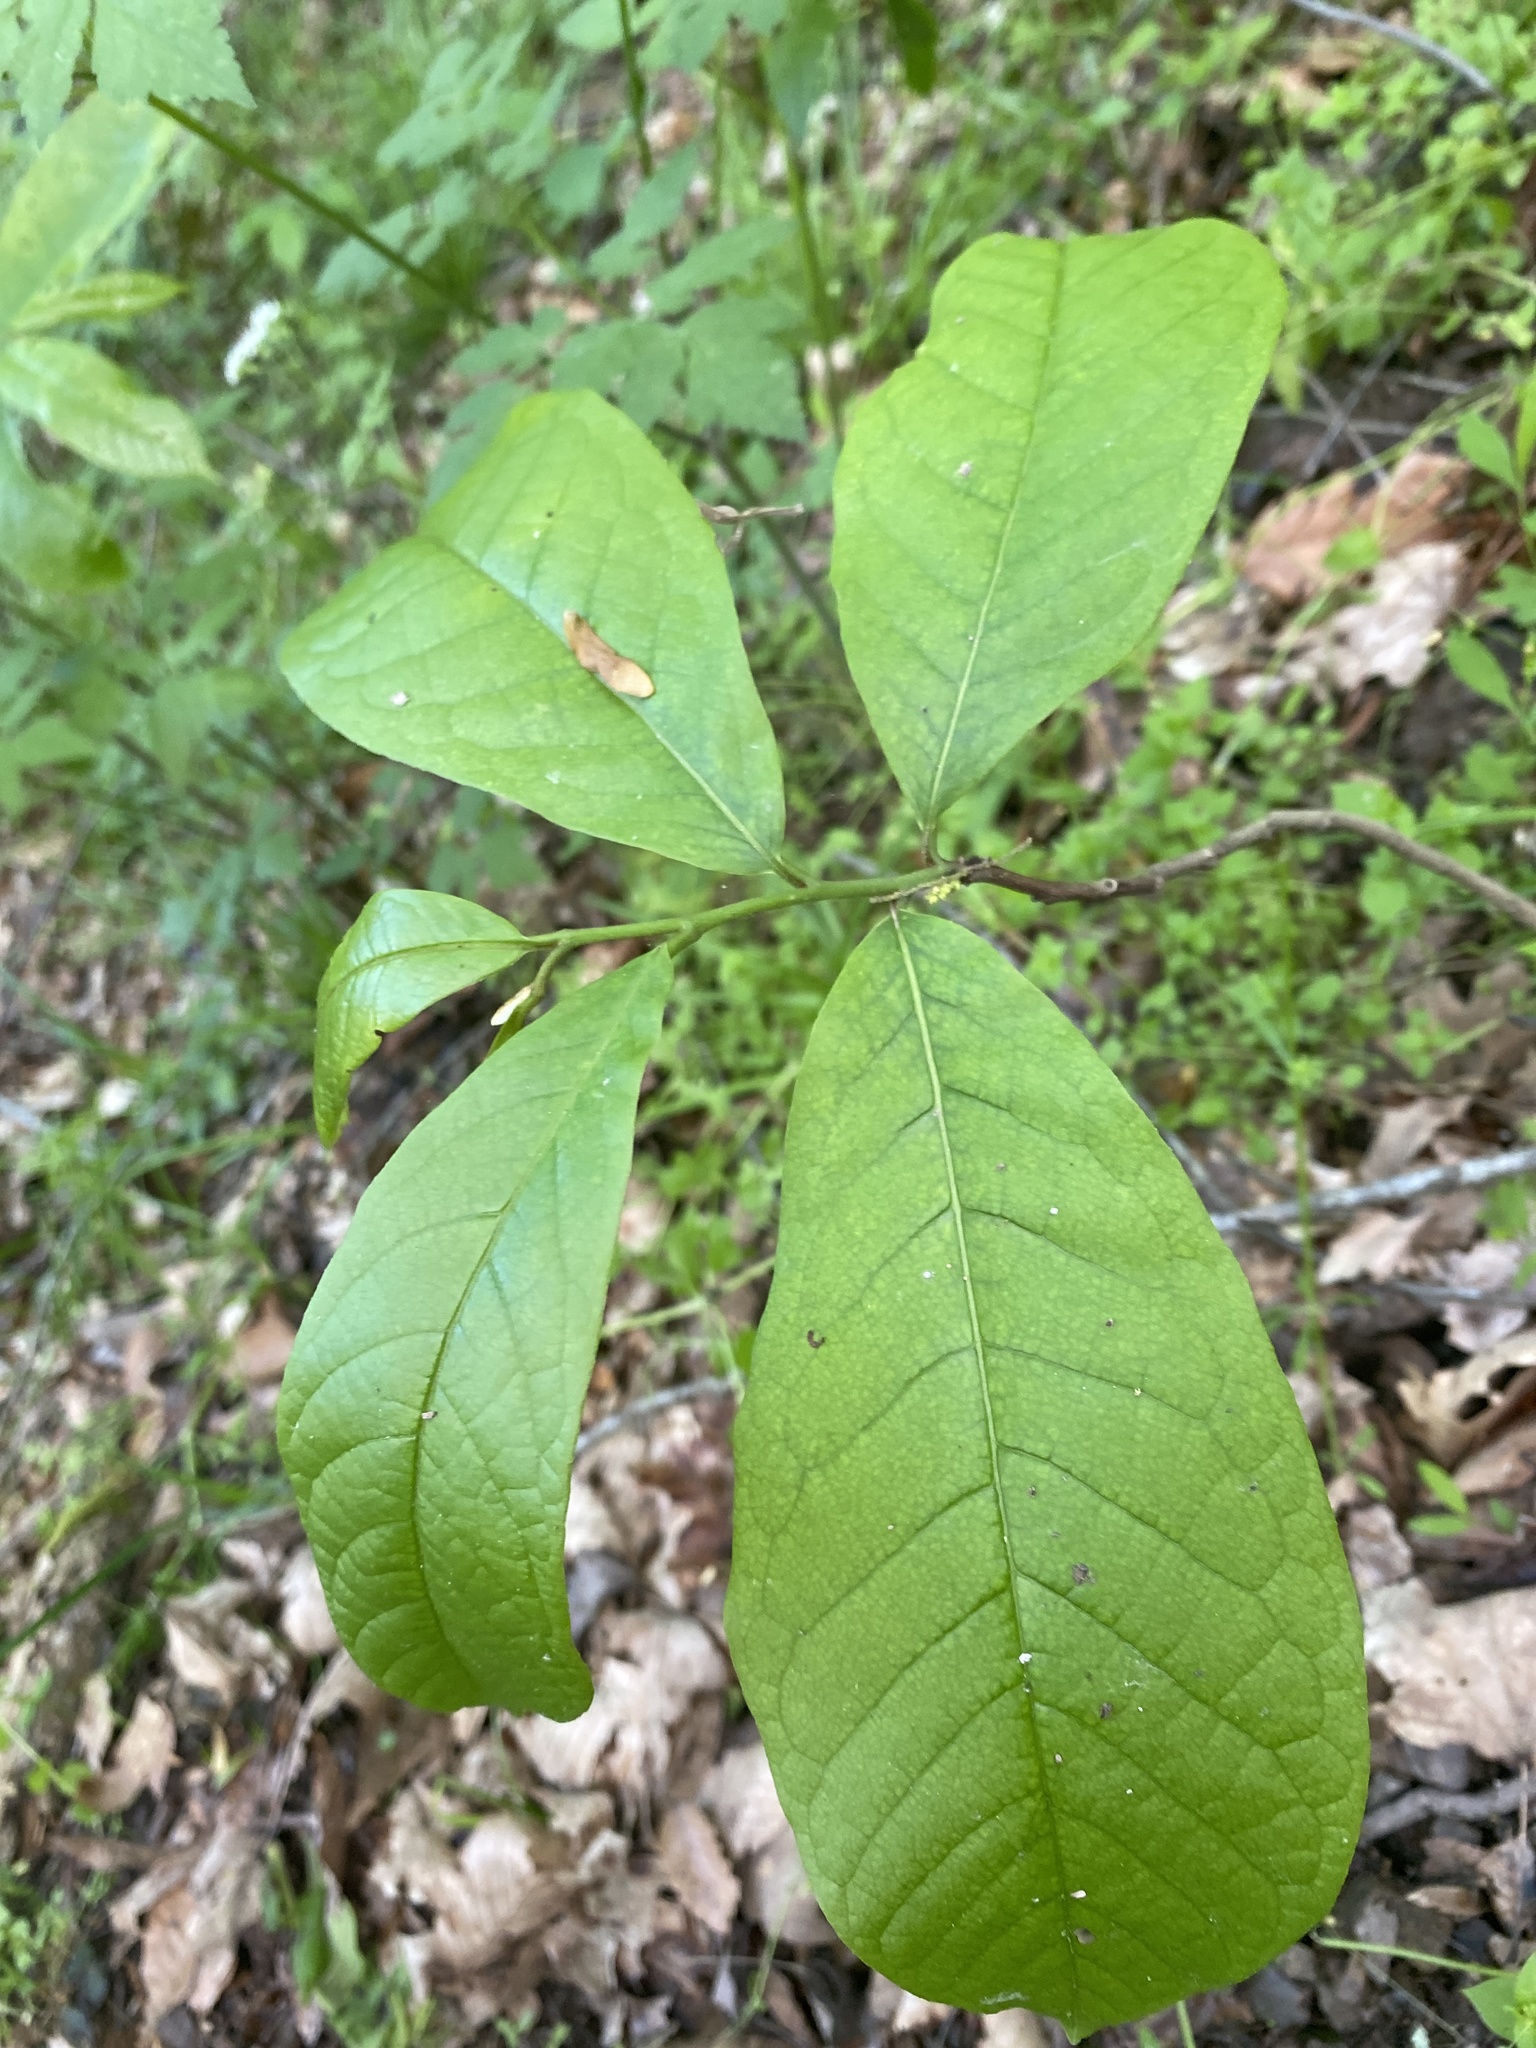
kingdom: Plantae
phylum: Tracheophyta
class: Magnoliopsida
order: Magnoliales
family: Annonaceae
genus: Asimina
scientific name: Asimina triloba
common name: Dog-banana
